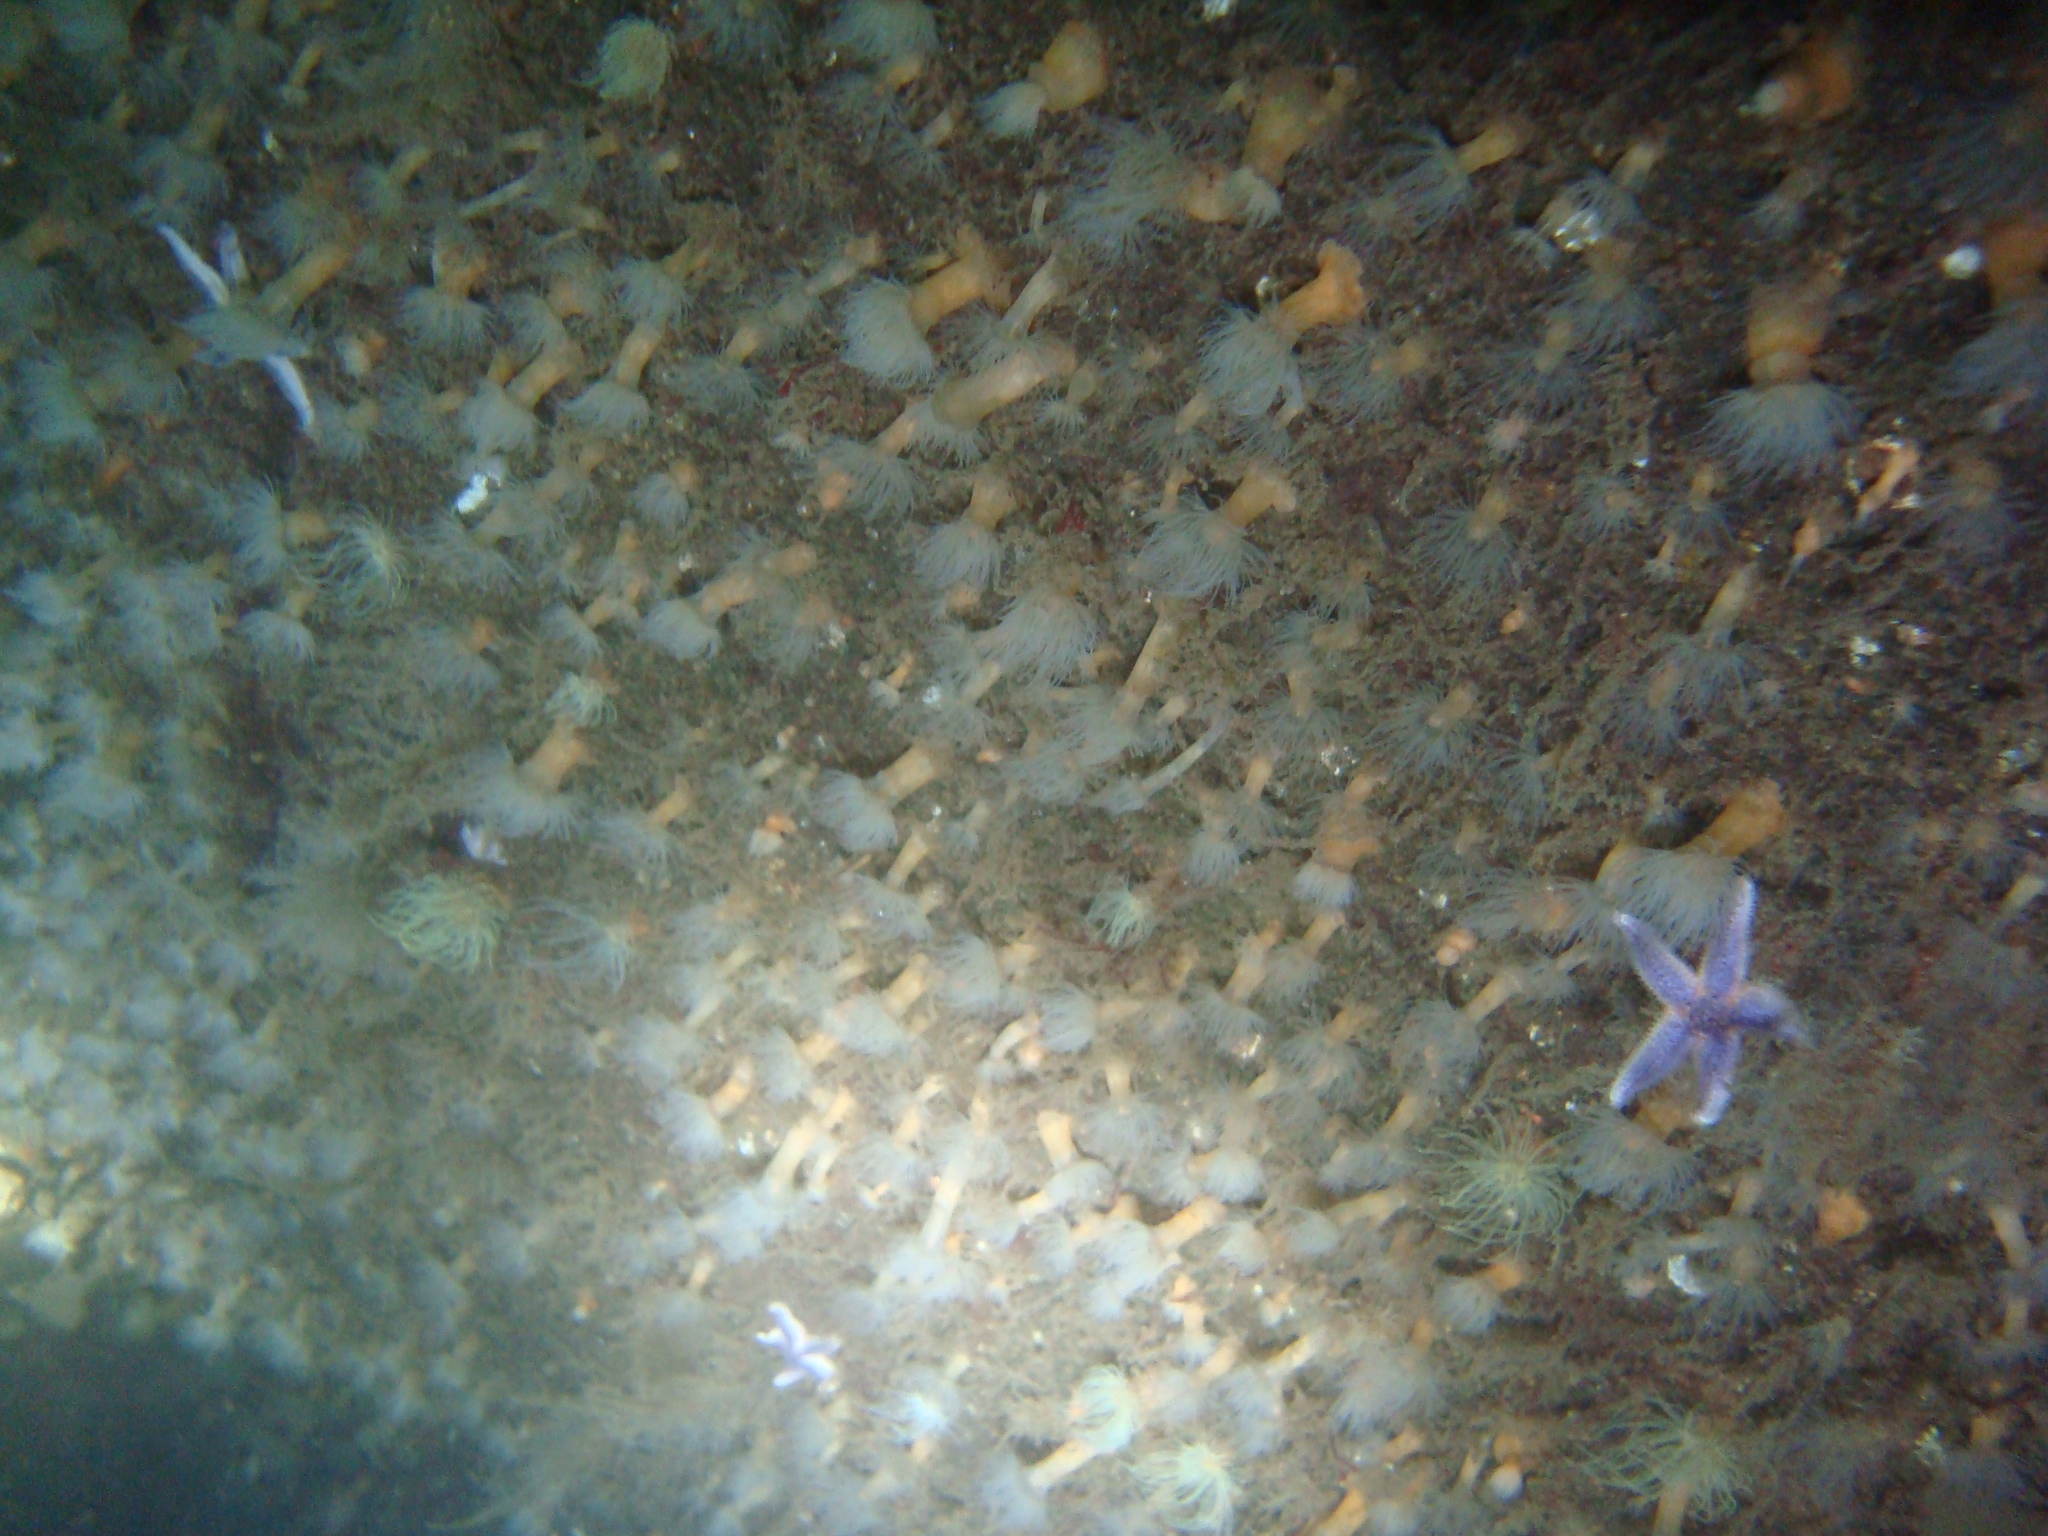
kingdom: Animalia
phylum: Cnidaria
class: Anthozoa
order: Actiniaria
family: Diadumenidae
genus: Diadumene
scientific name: Diadumene cincta
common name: Orange anemone
